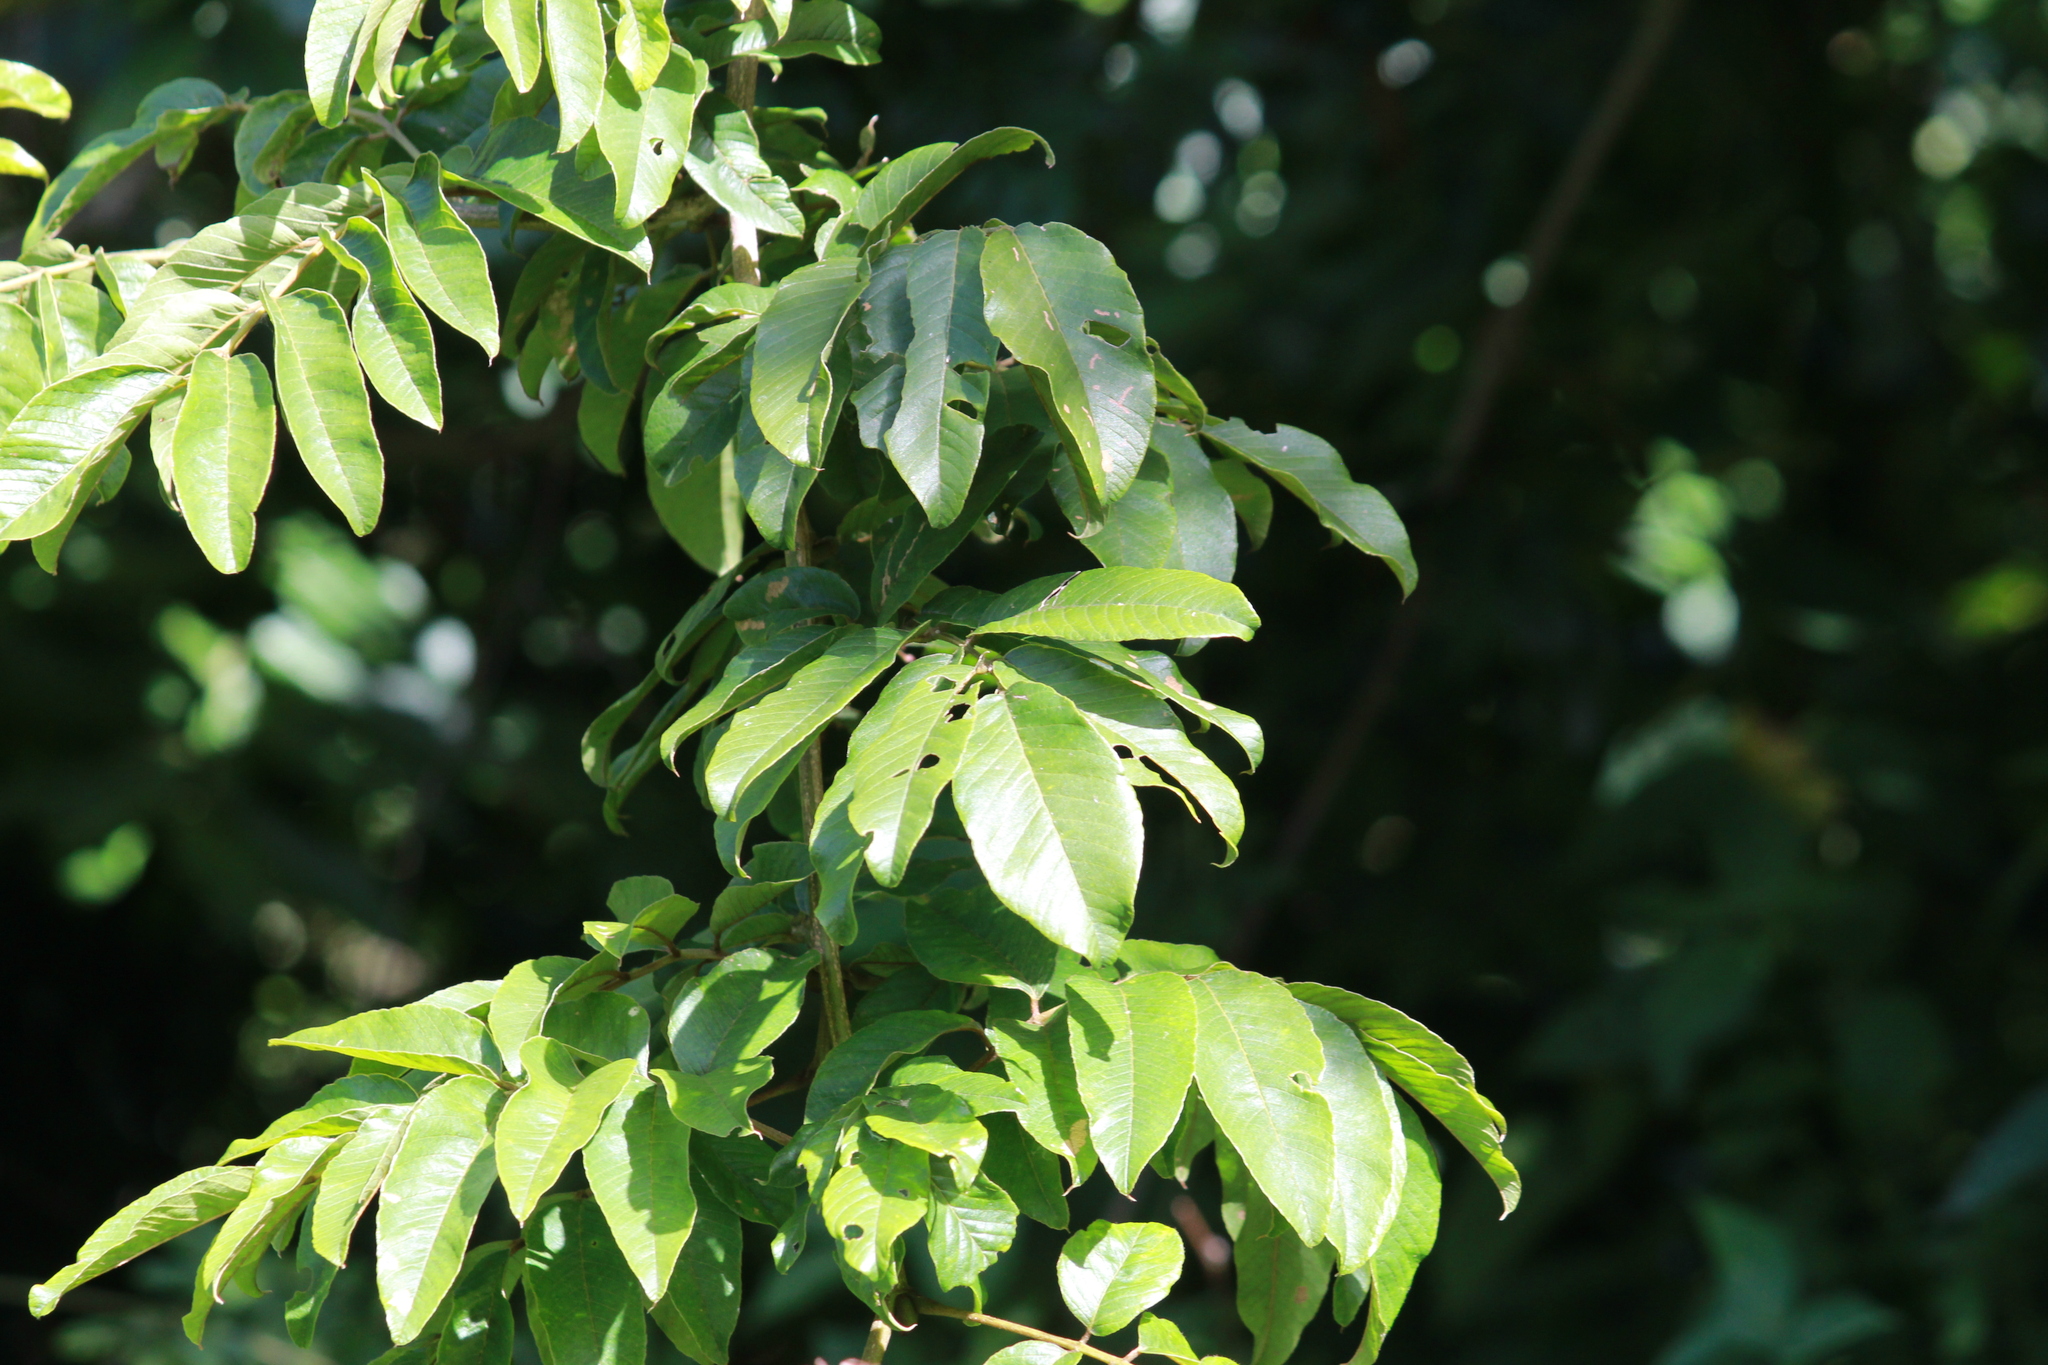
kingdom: Plantae
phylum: Tracheophyta
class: Magnoliopsida
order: Fabales
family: Fabaceae
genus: Millettia
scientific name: Millettia grandis
